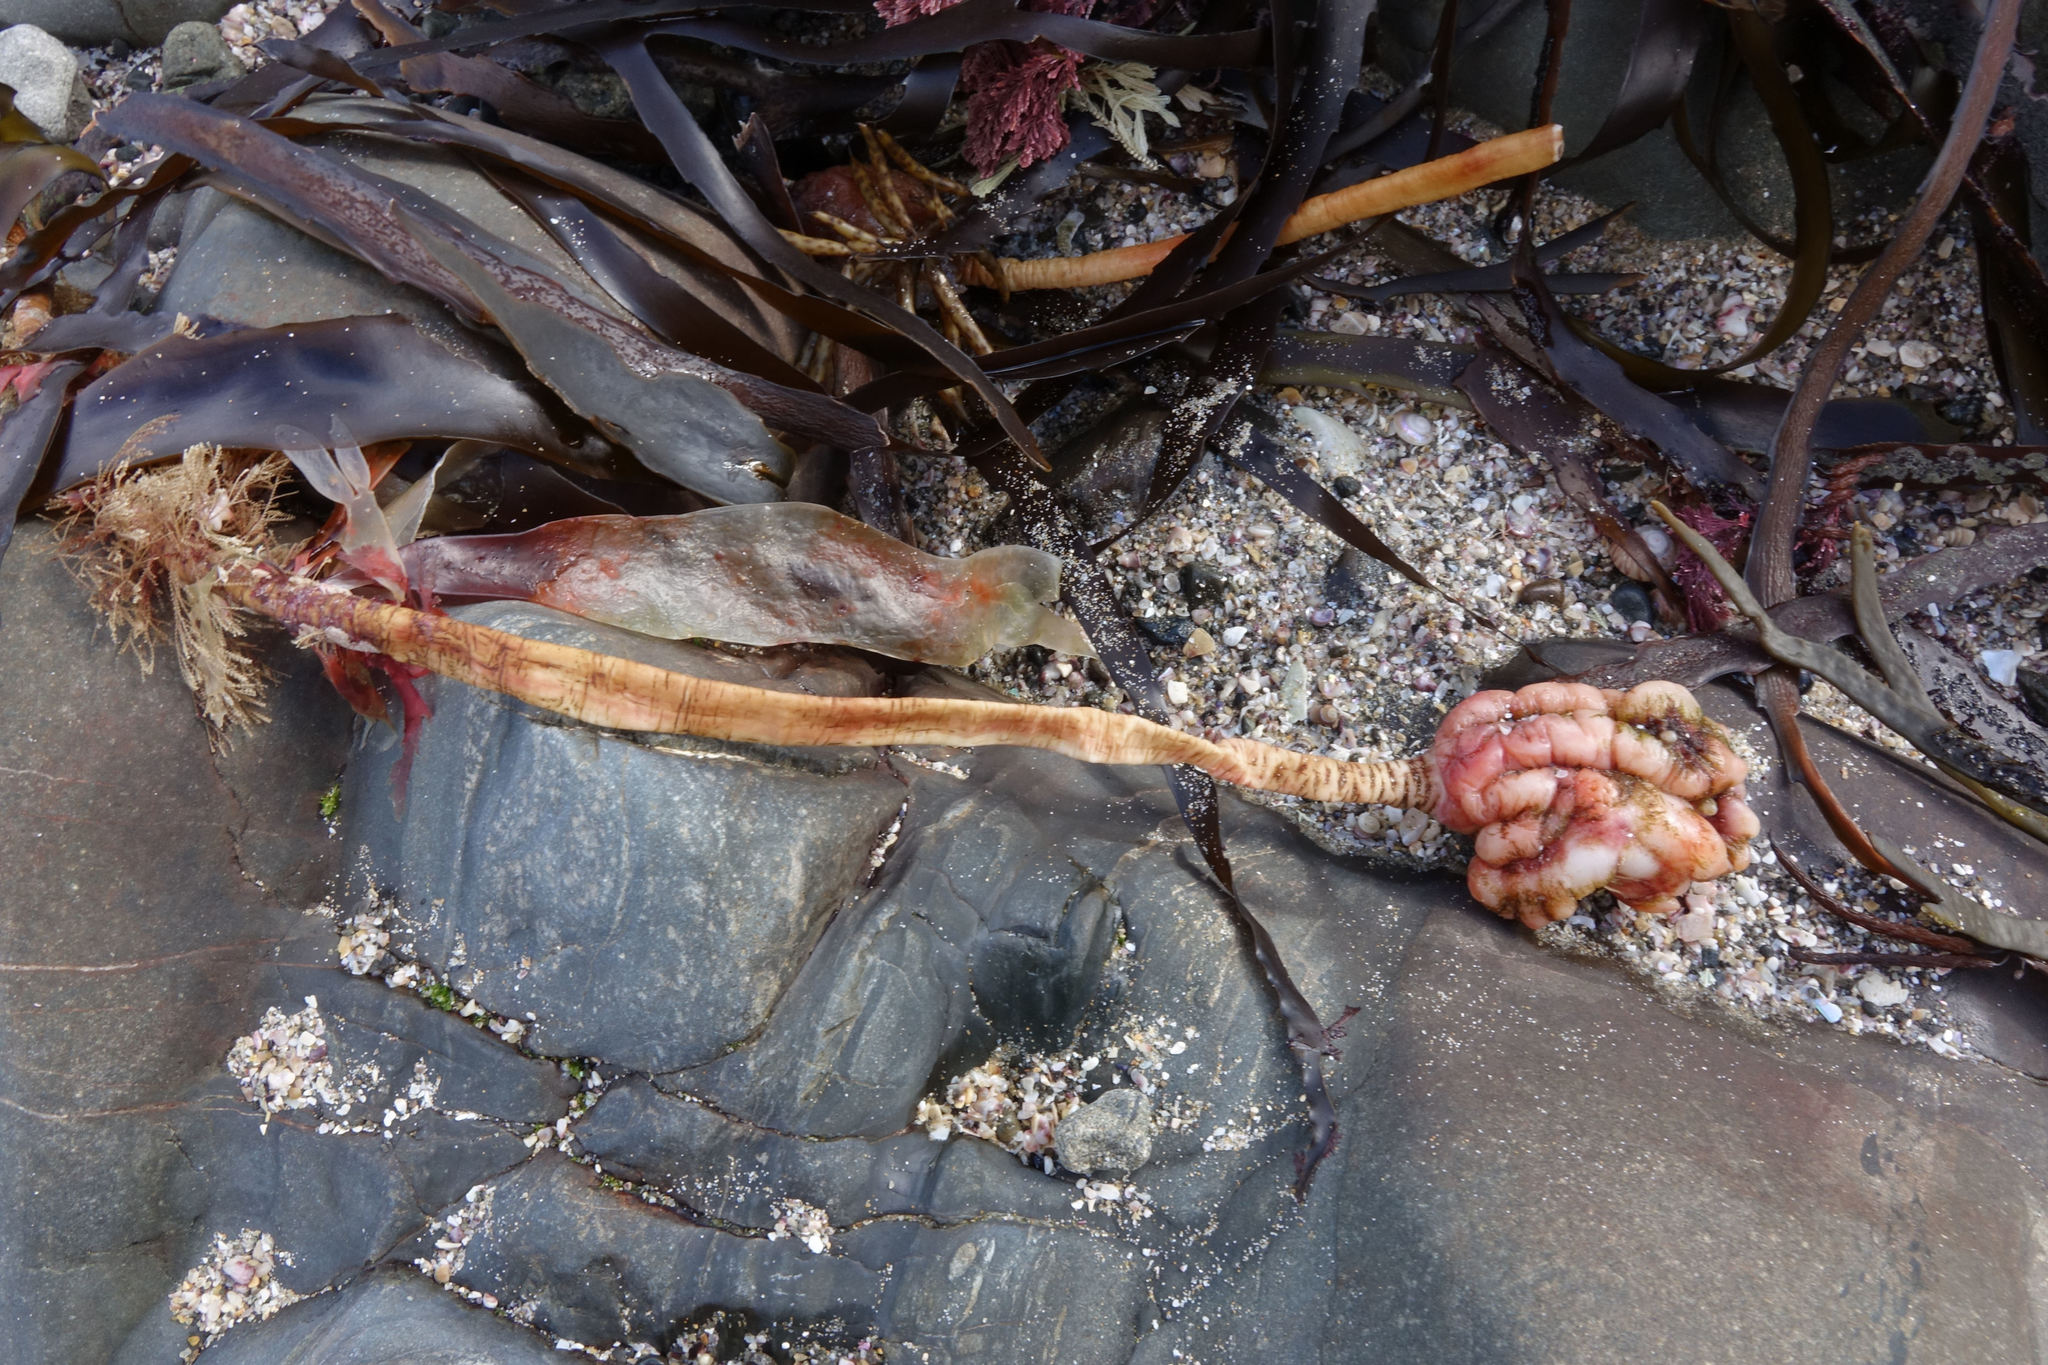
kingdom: Animalia
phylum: Chordata
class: Ascidiacea
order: Stolidobranchia
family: Pyuridae
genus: Pyura
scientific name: Pyura pachydermatina
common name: Sea tulip
